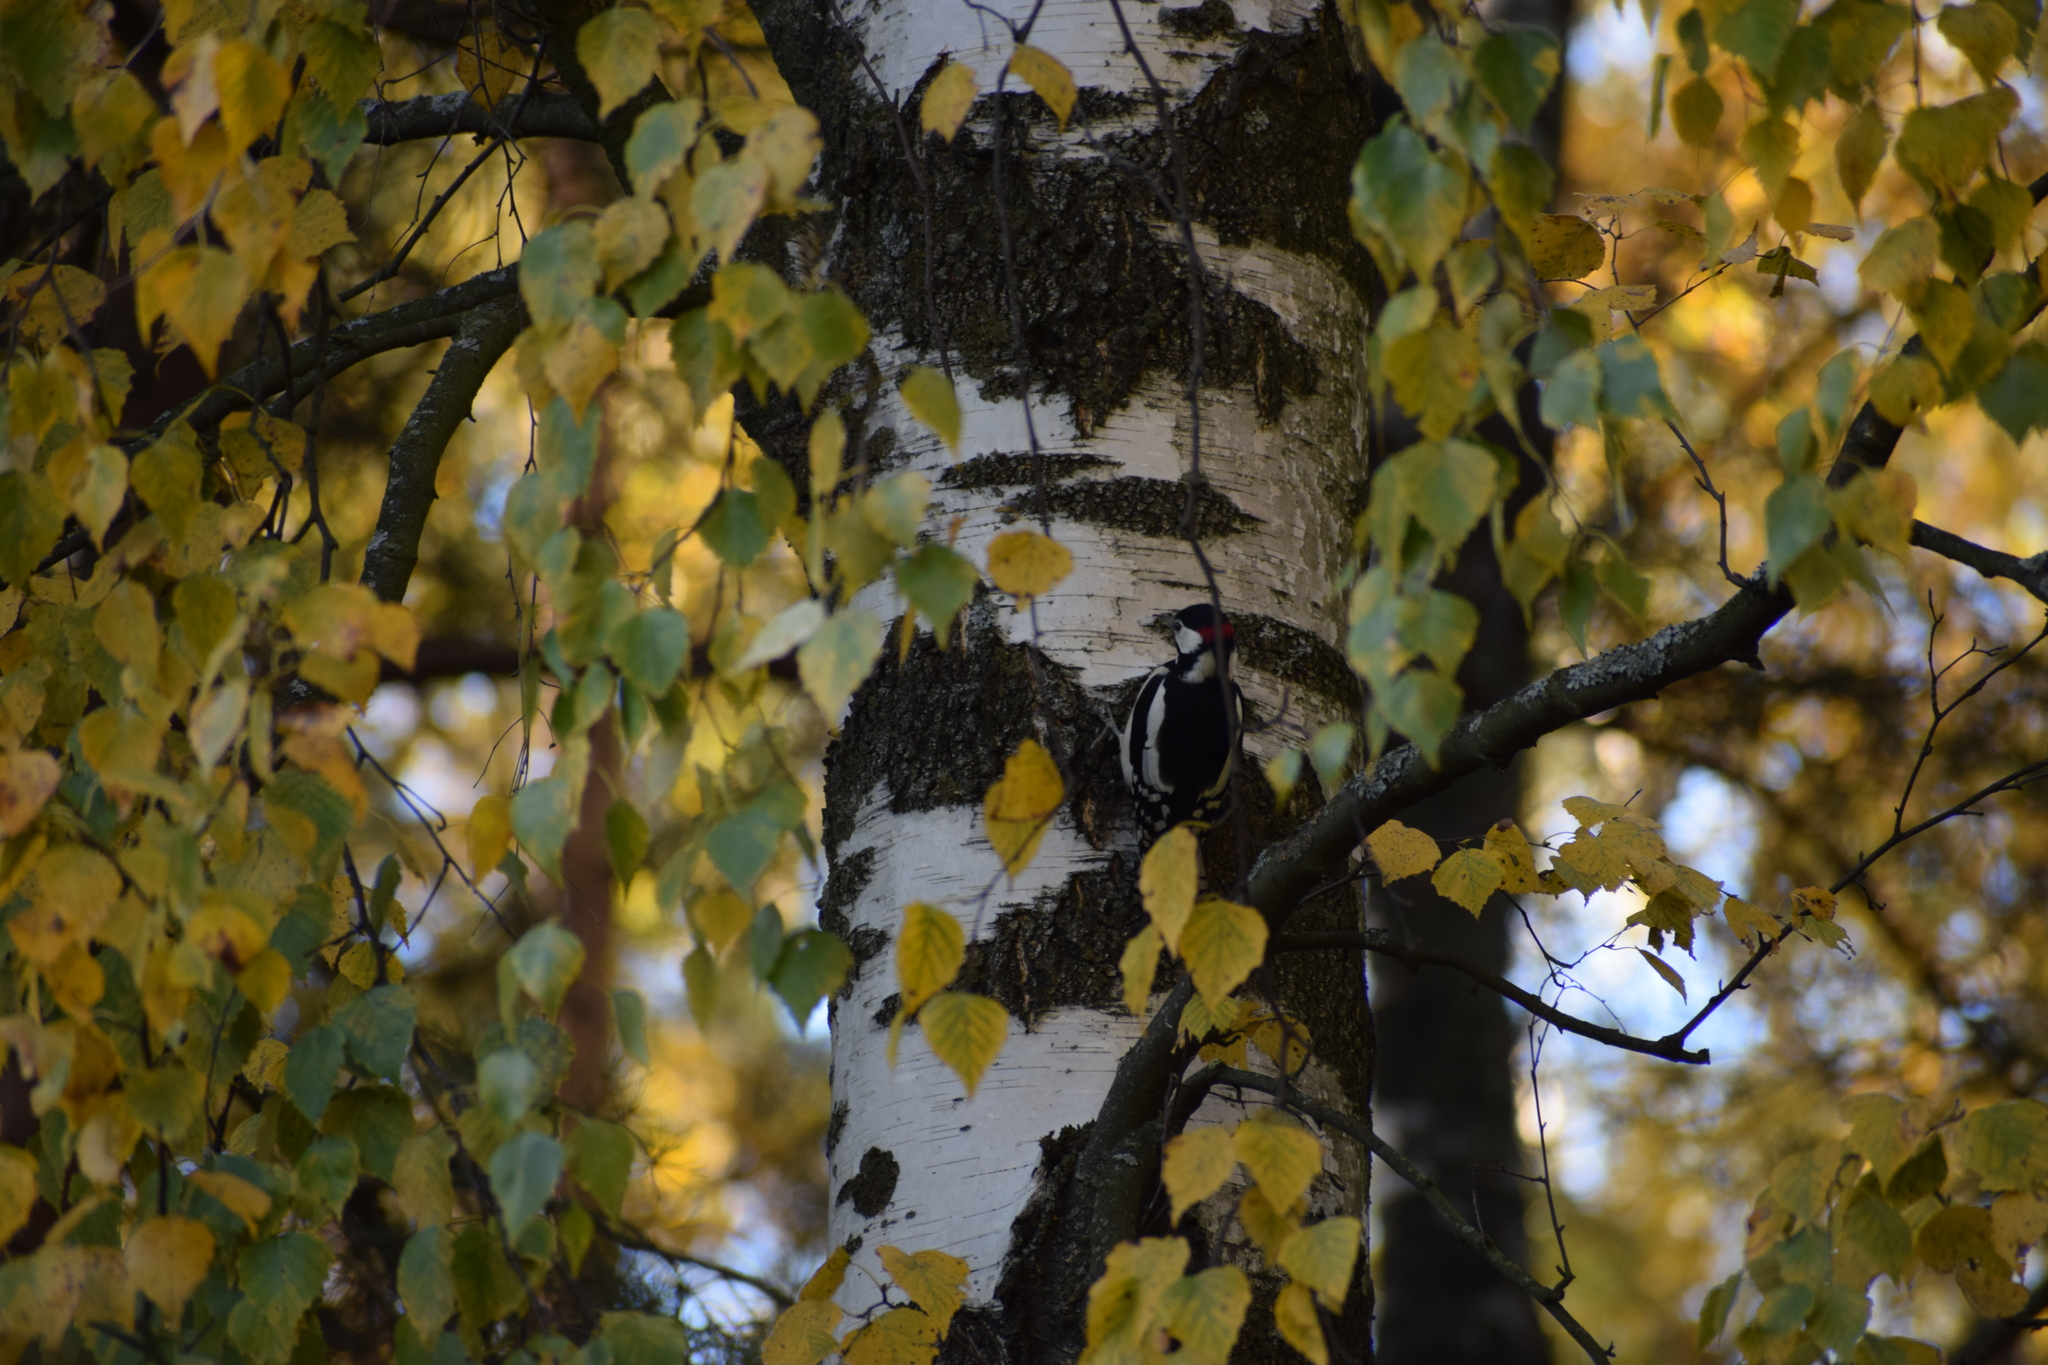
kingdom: Animalia
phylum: Chordata
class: Aves
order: Piciformes
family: Picidae
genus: Dendrocopos
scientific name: Dendrocopos major
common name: Great spotted woodpecker
